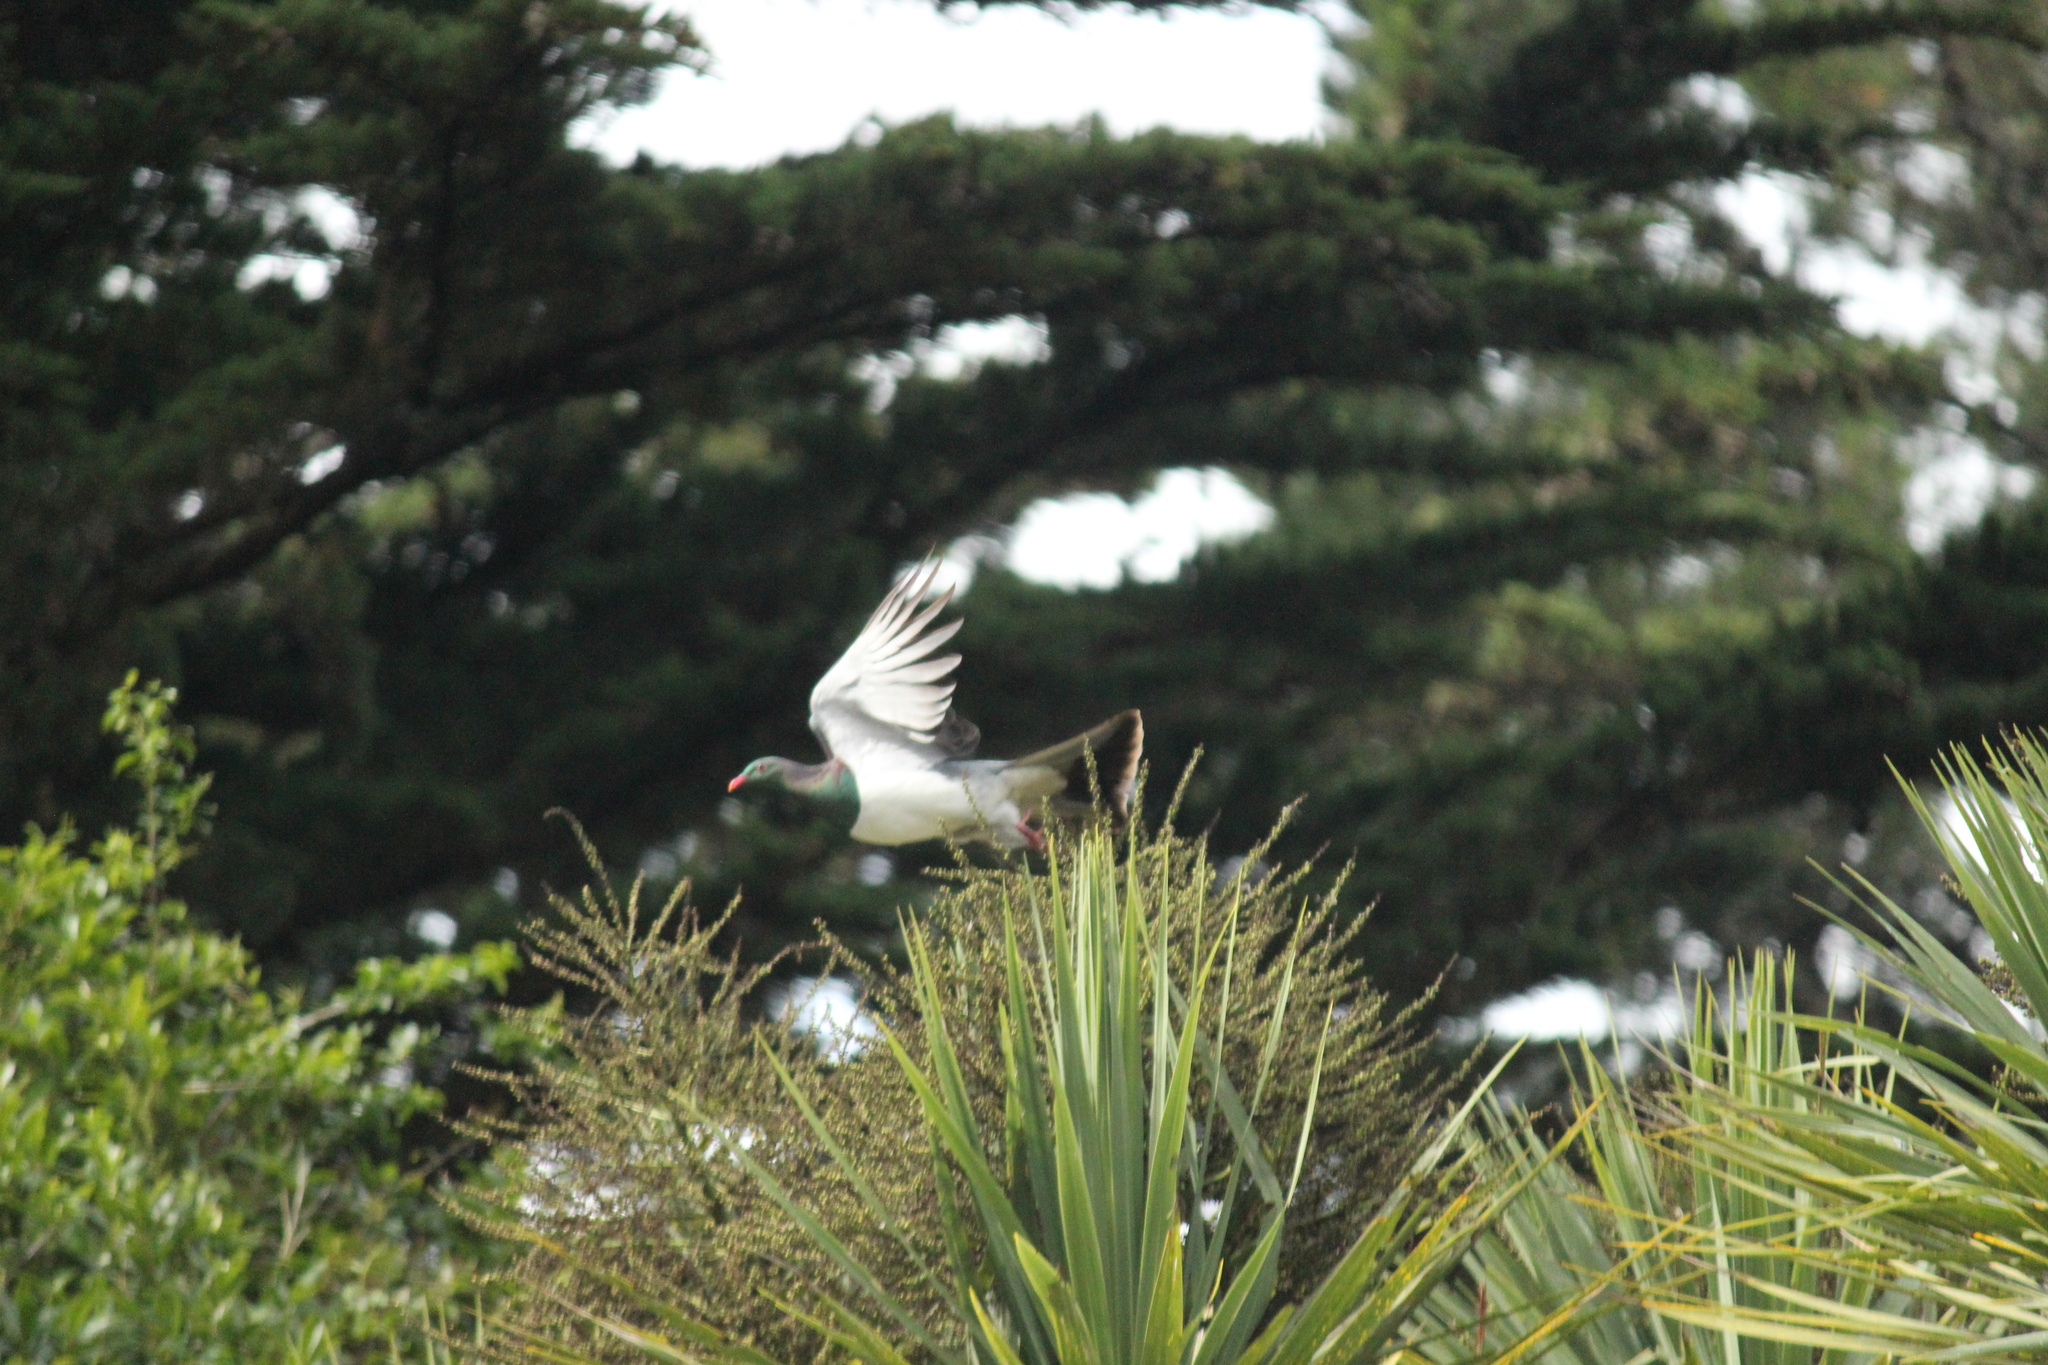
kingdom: Animalia
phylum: Chordata
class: Aves
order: Columbiformes
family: Columbidae
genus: Hemiphaga
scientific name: Hemiphaga novaeseelandiae
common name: New zealand pigeon
